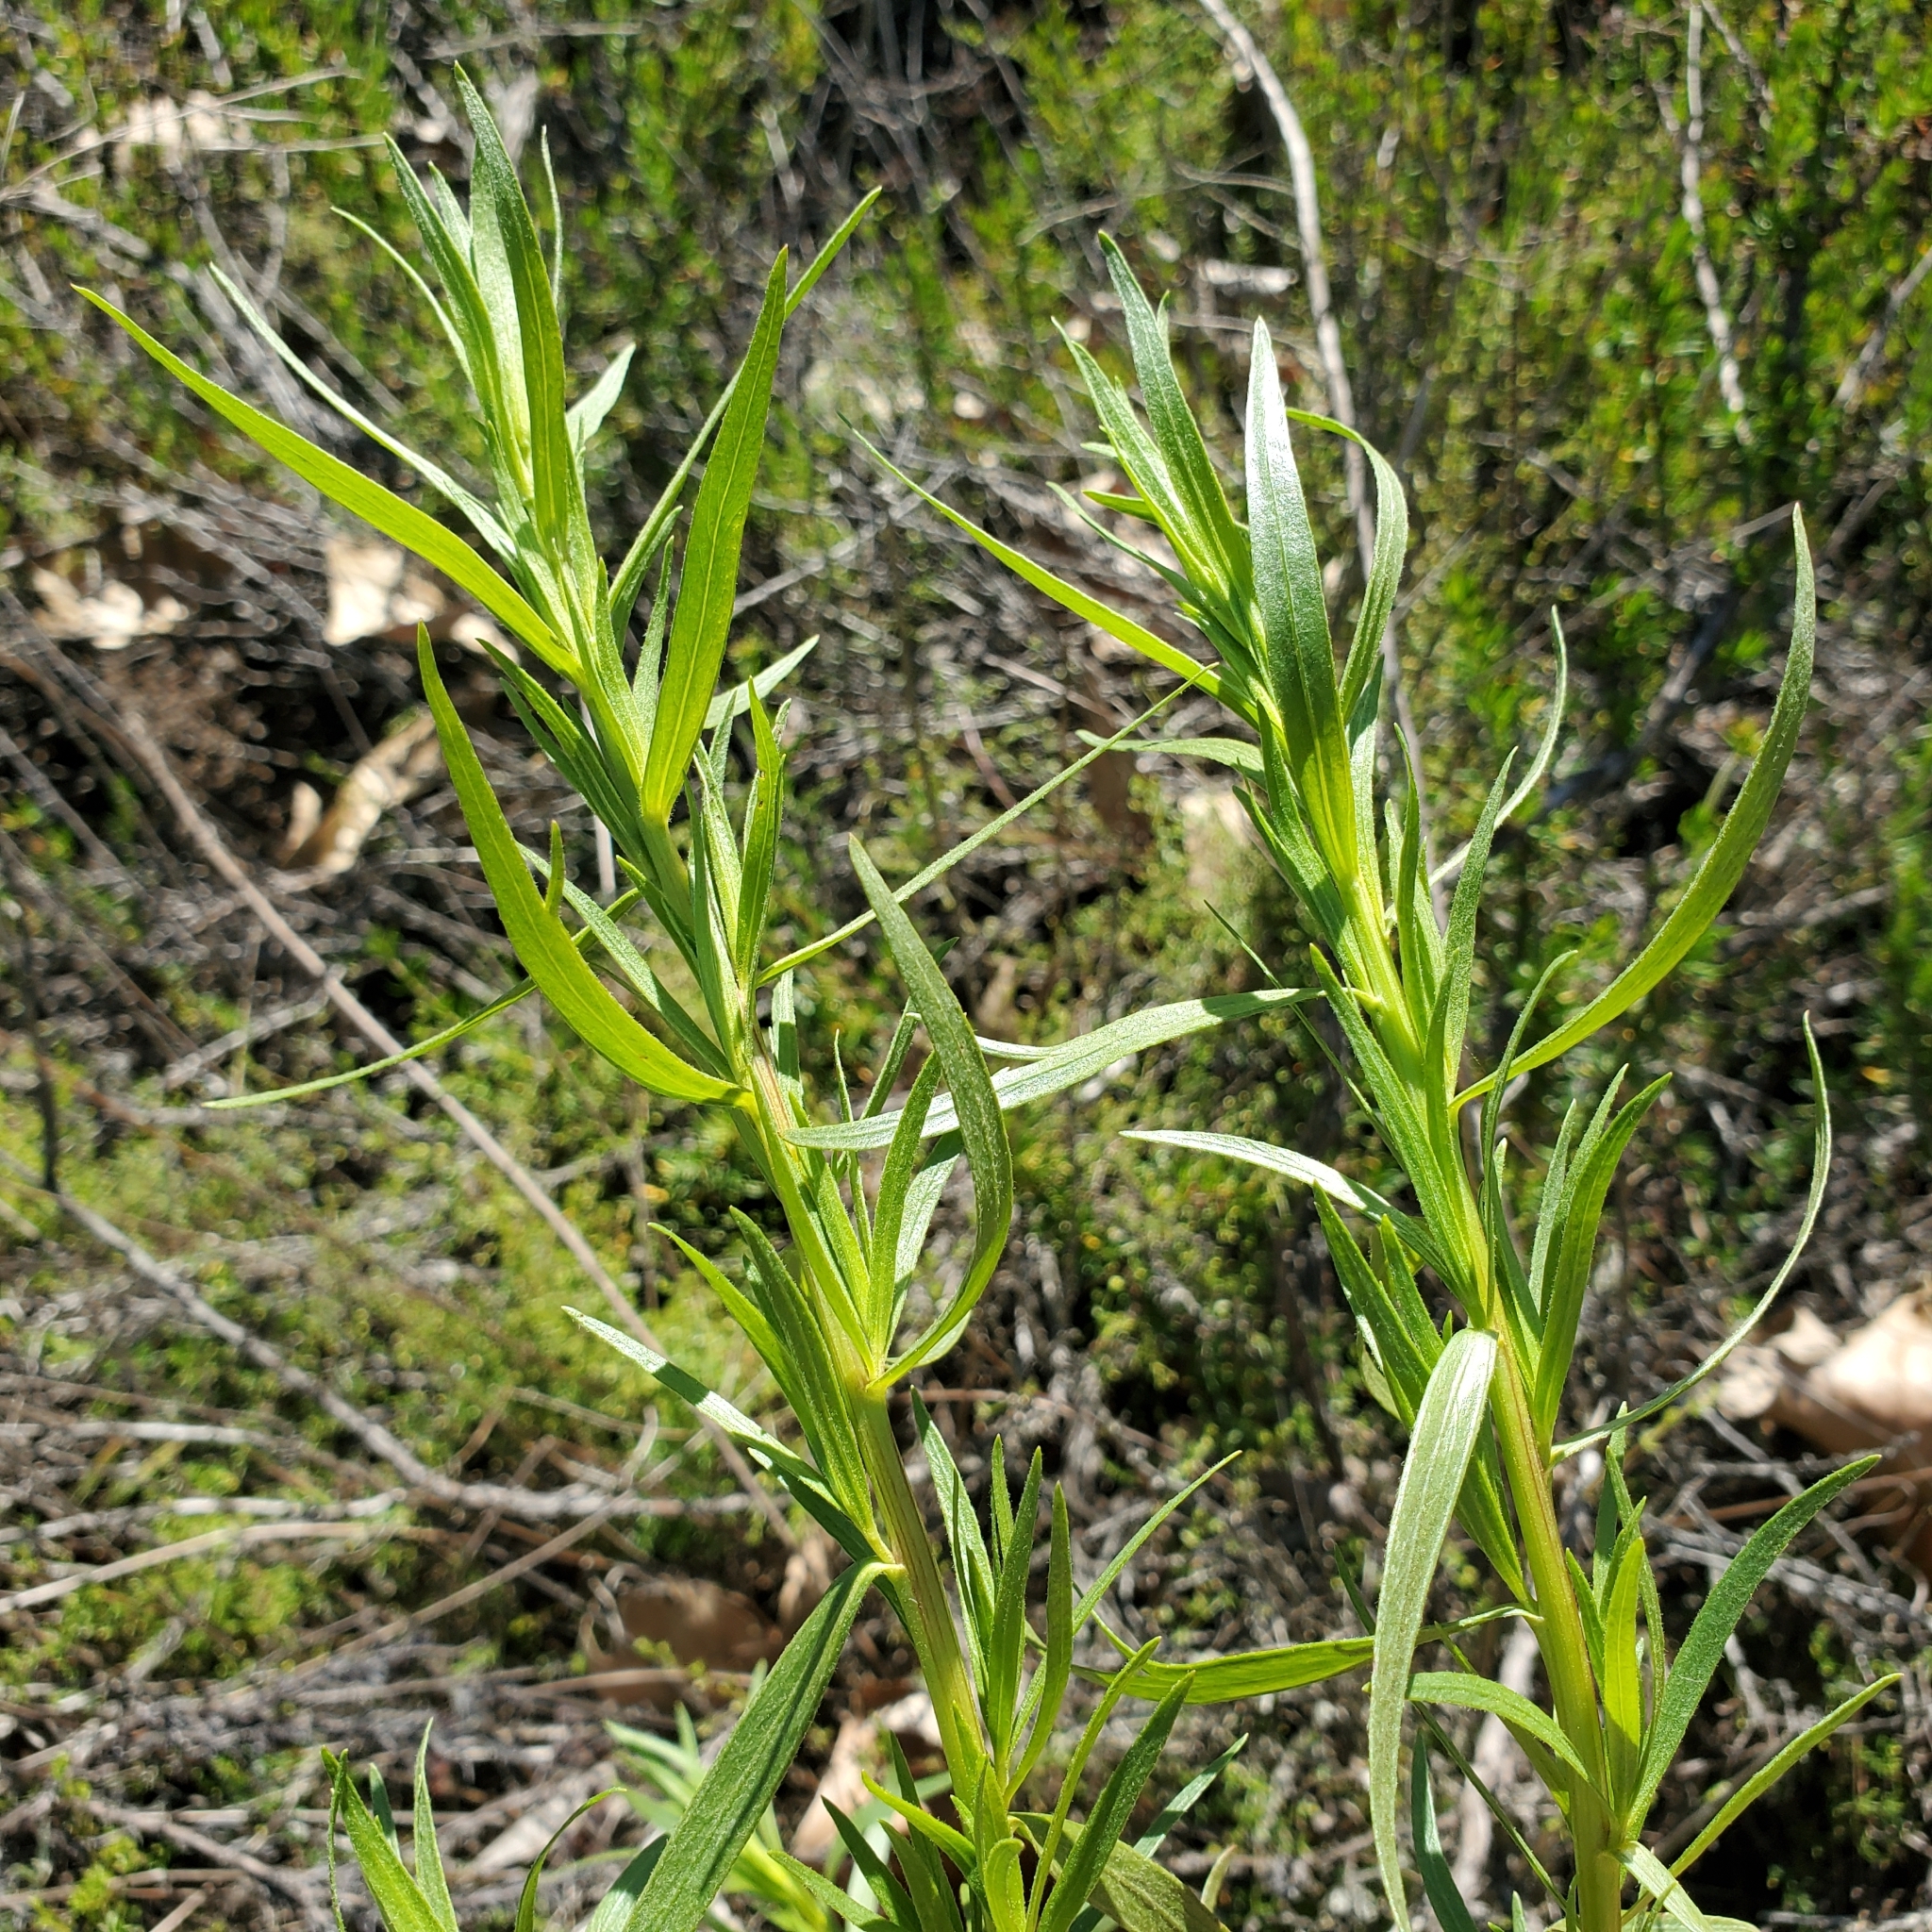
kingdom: Plantae
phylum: Tracheophyta
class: Magnoliopsida
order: Asterales
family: Asteraceae
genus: Artemisia
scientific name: Artemisia dracunculus
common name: Tarragon
